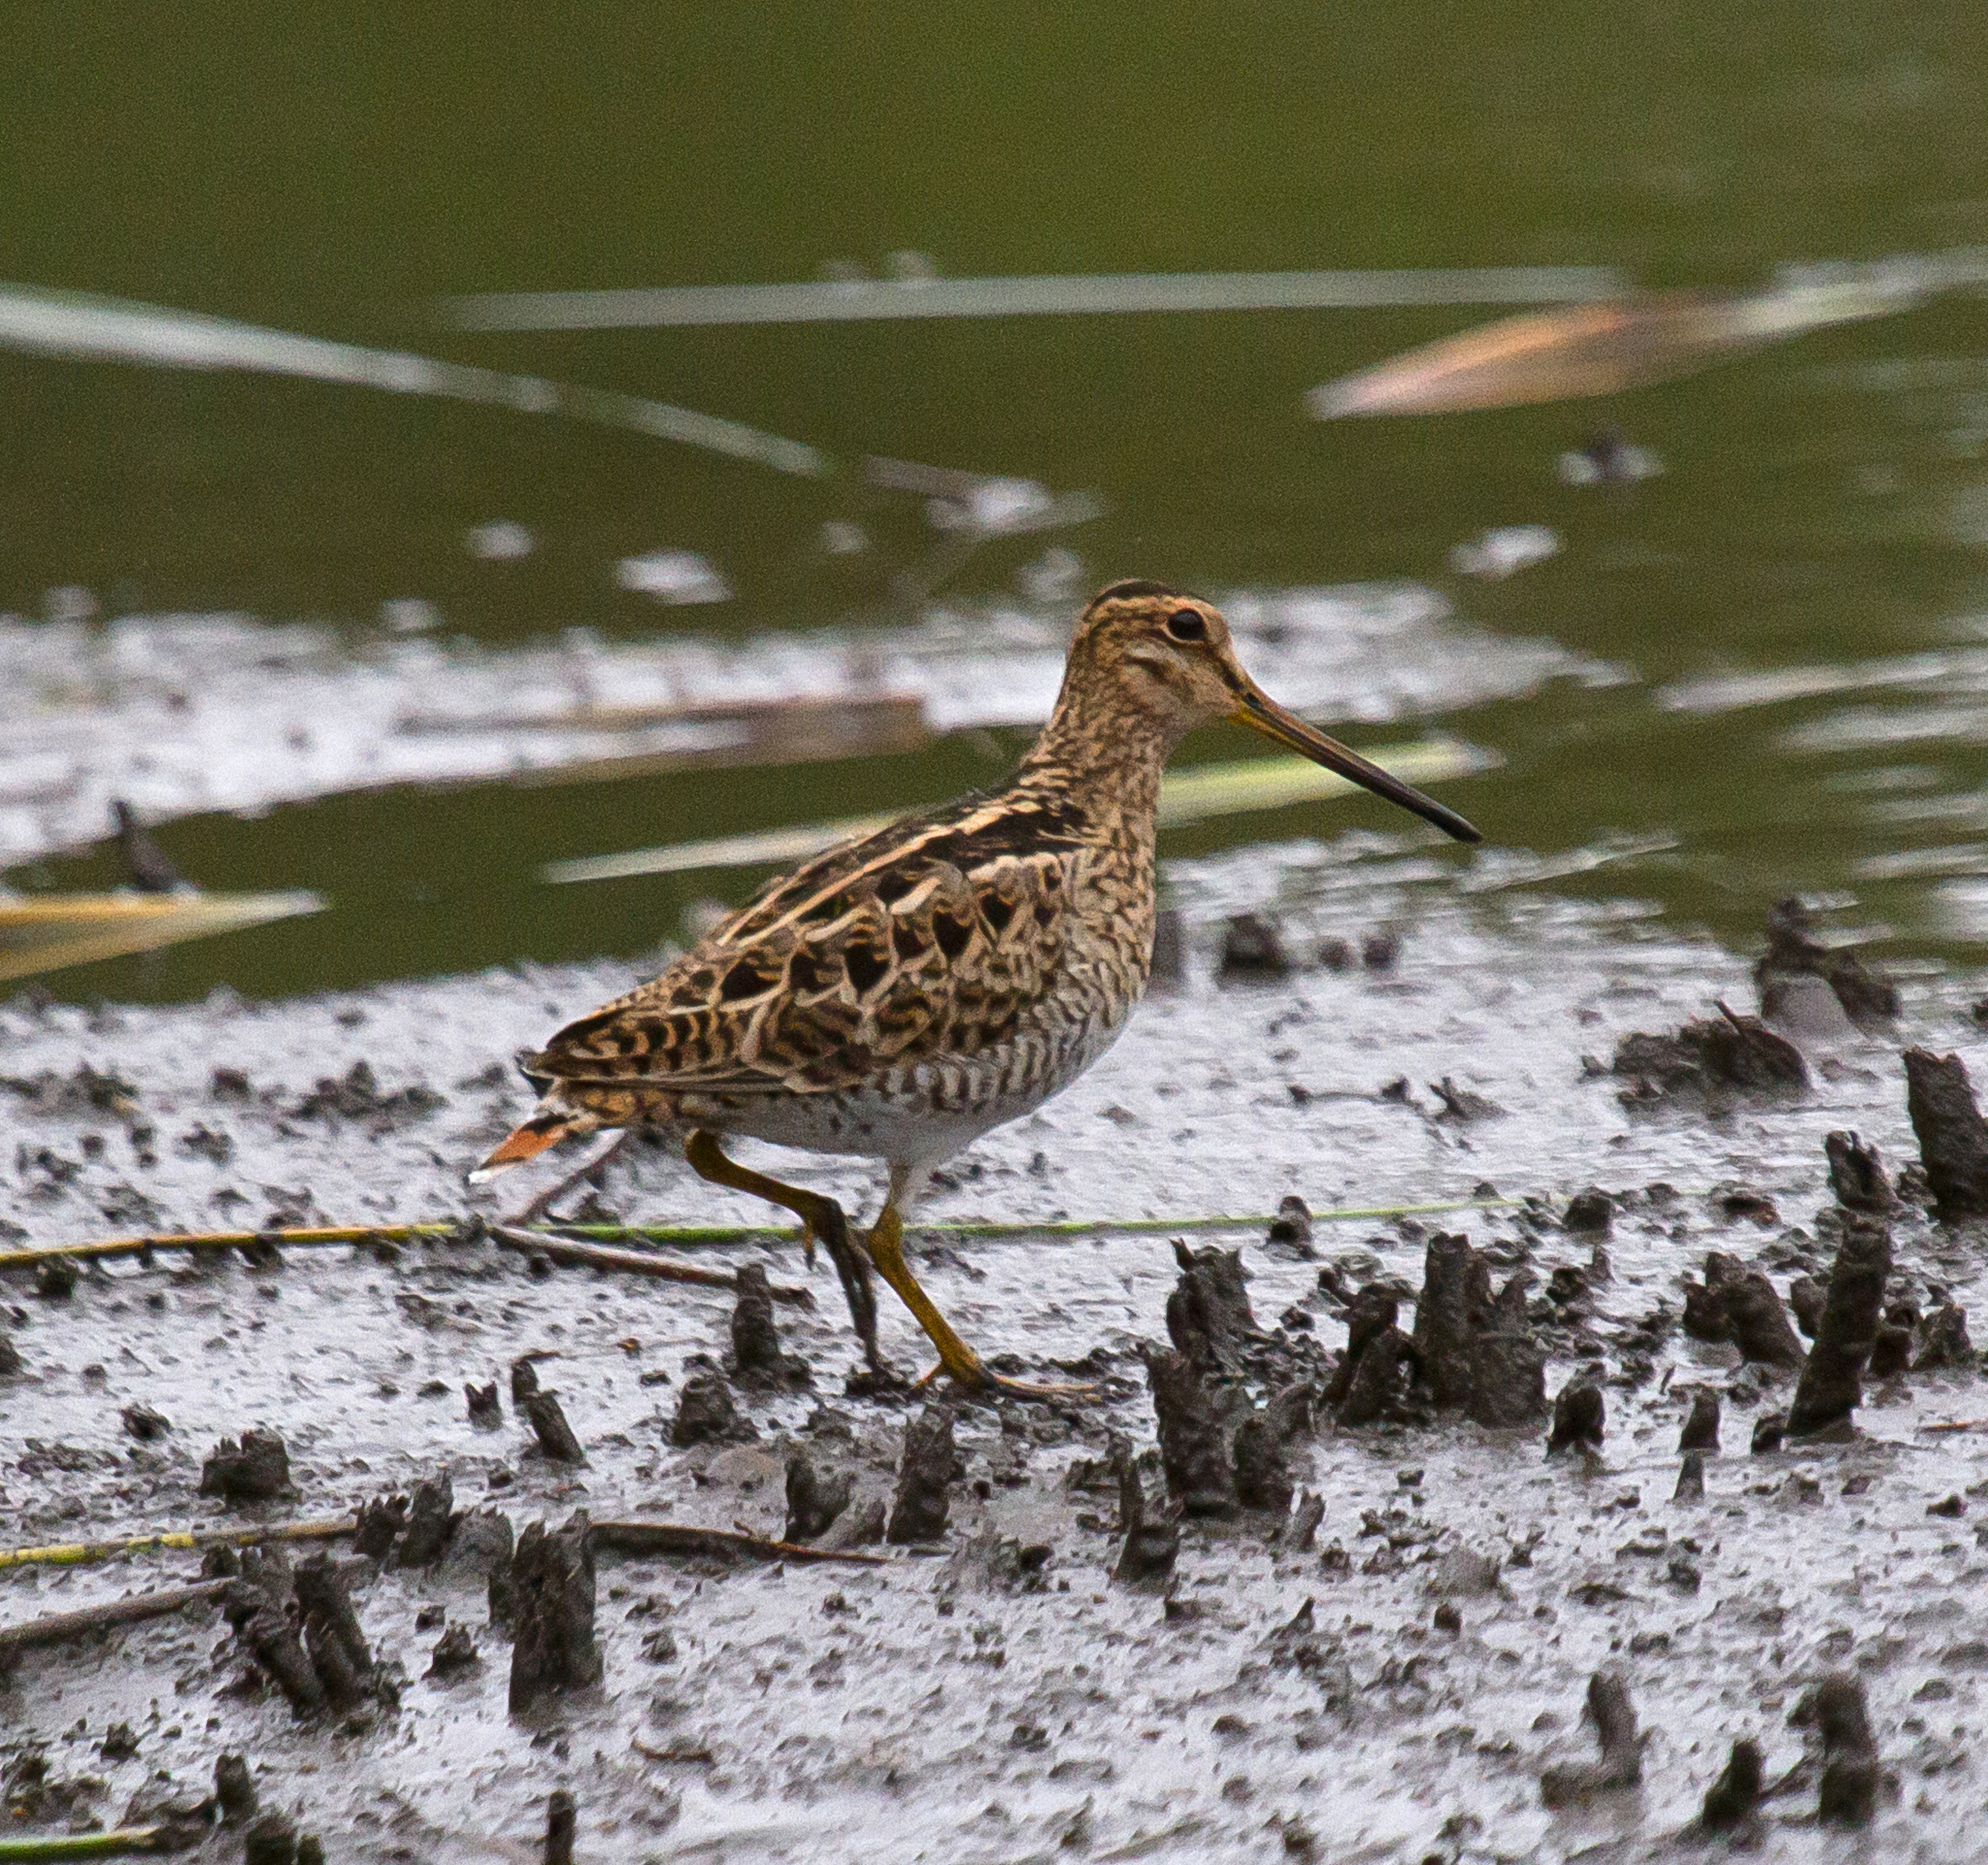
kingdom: Animalia
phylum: Chordata
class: Aves
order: Charadriiformes
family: Scolopacidae
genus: Gallinago
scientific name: Gallinago hardwickii
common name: Latham's snipe
